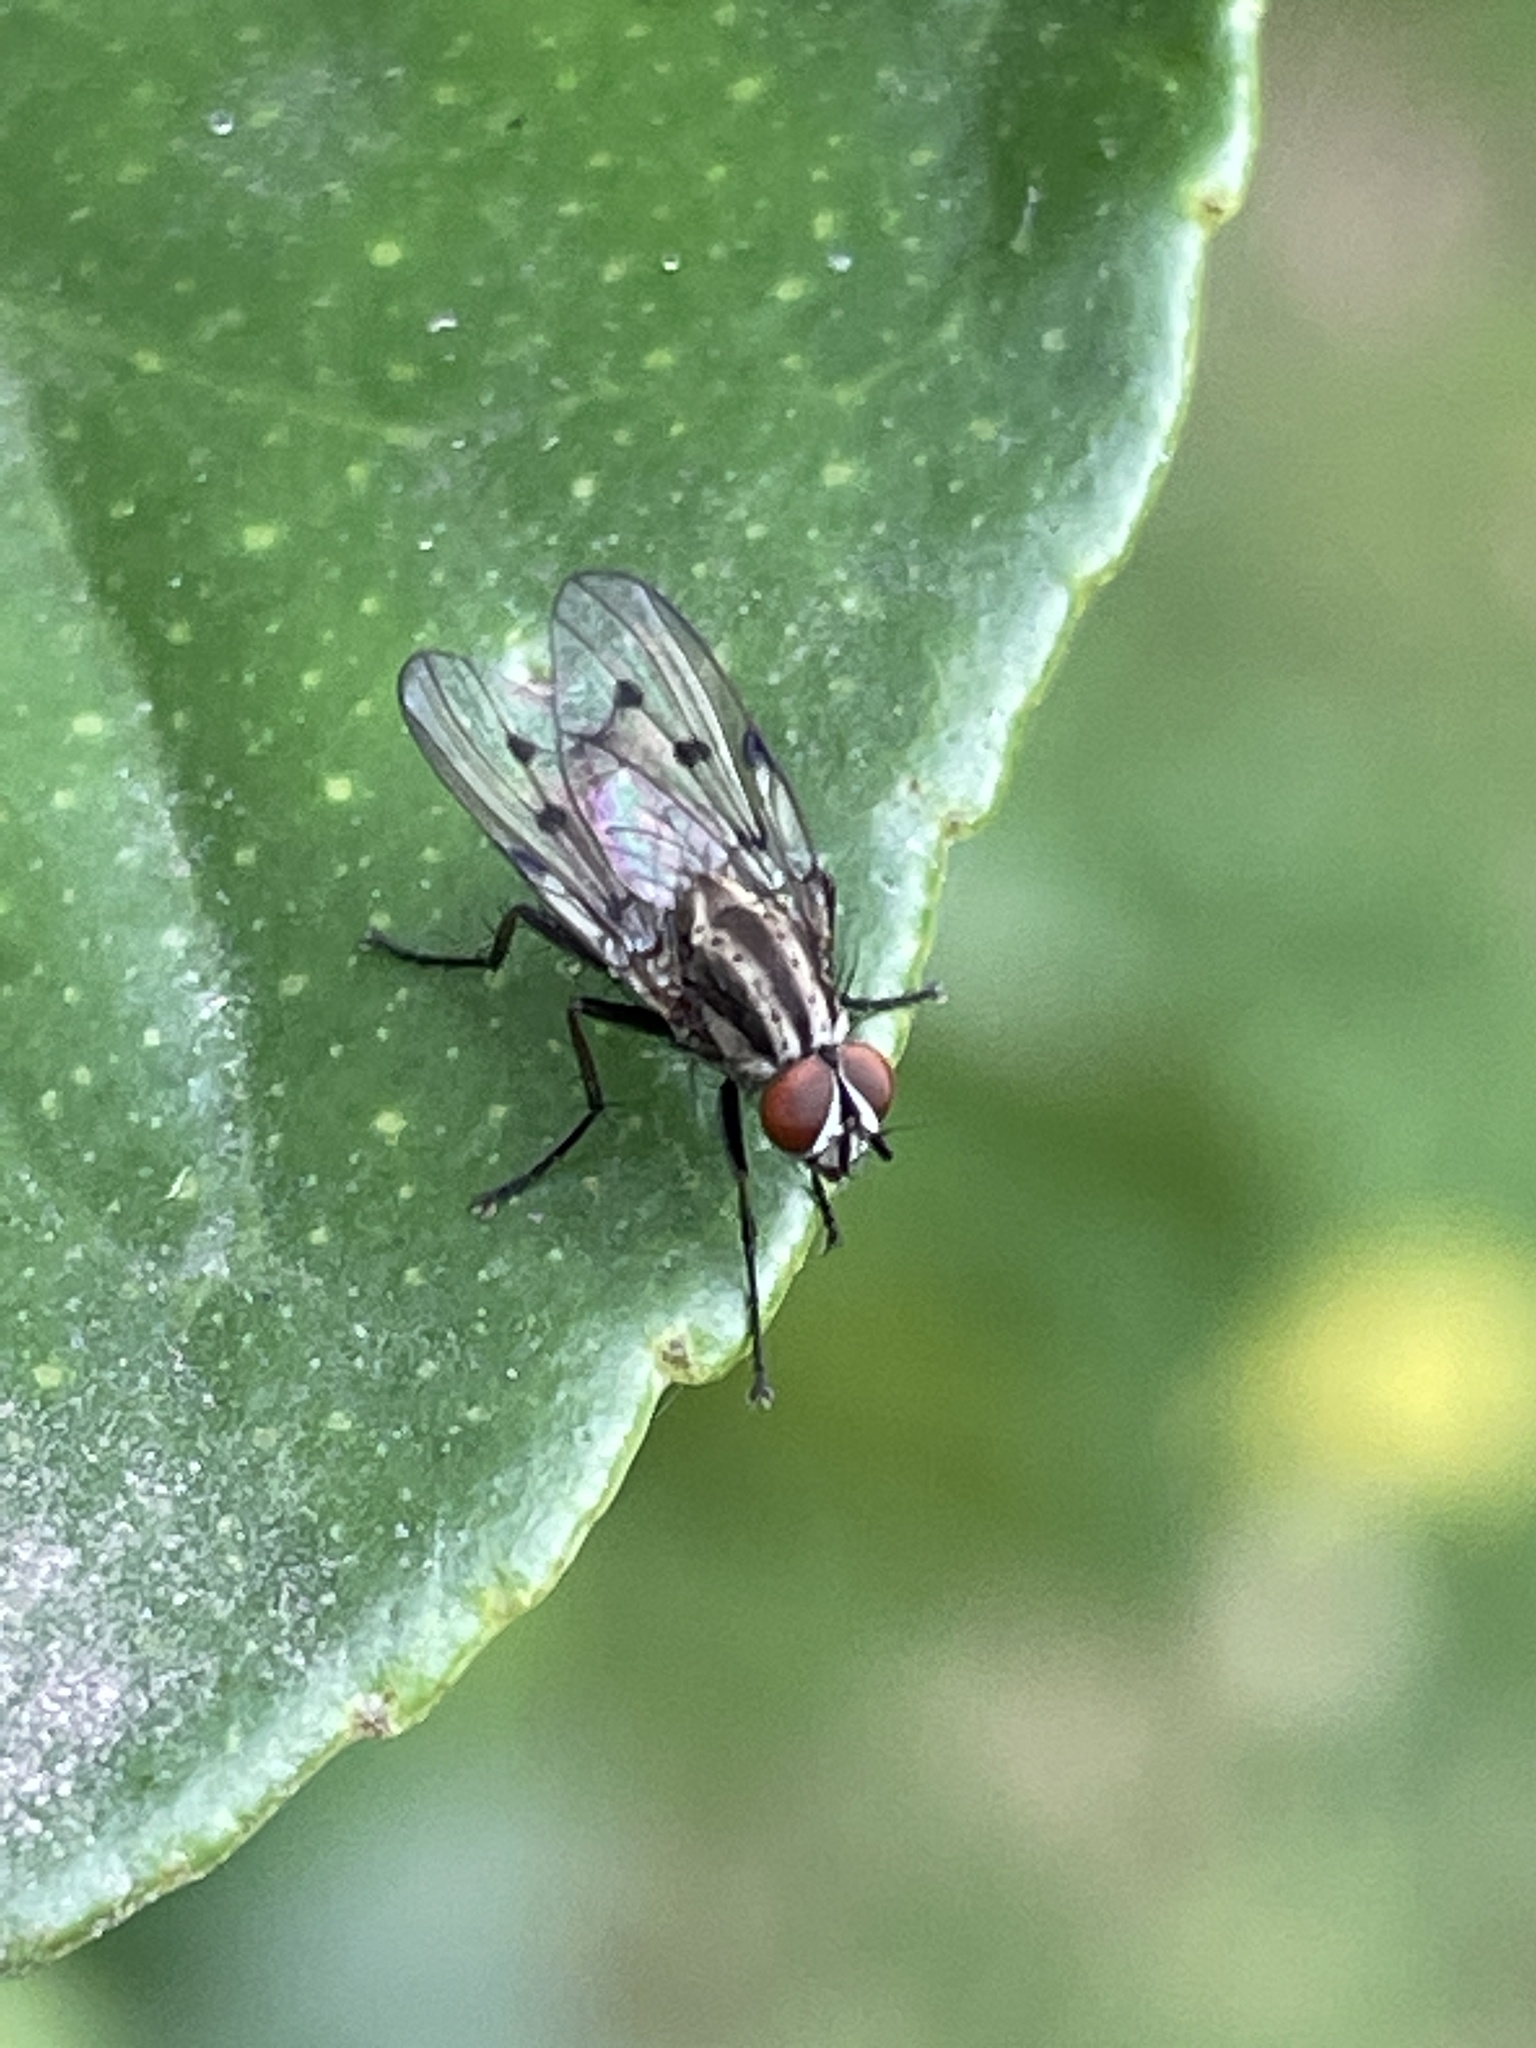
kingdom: Animalia
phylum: Arthropoda
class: Insecta
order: Diptera
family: Anthomyiidae
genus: Anthomyia
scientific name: Anthomyia punctipennis
